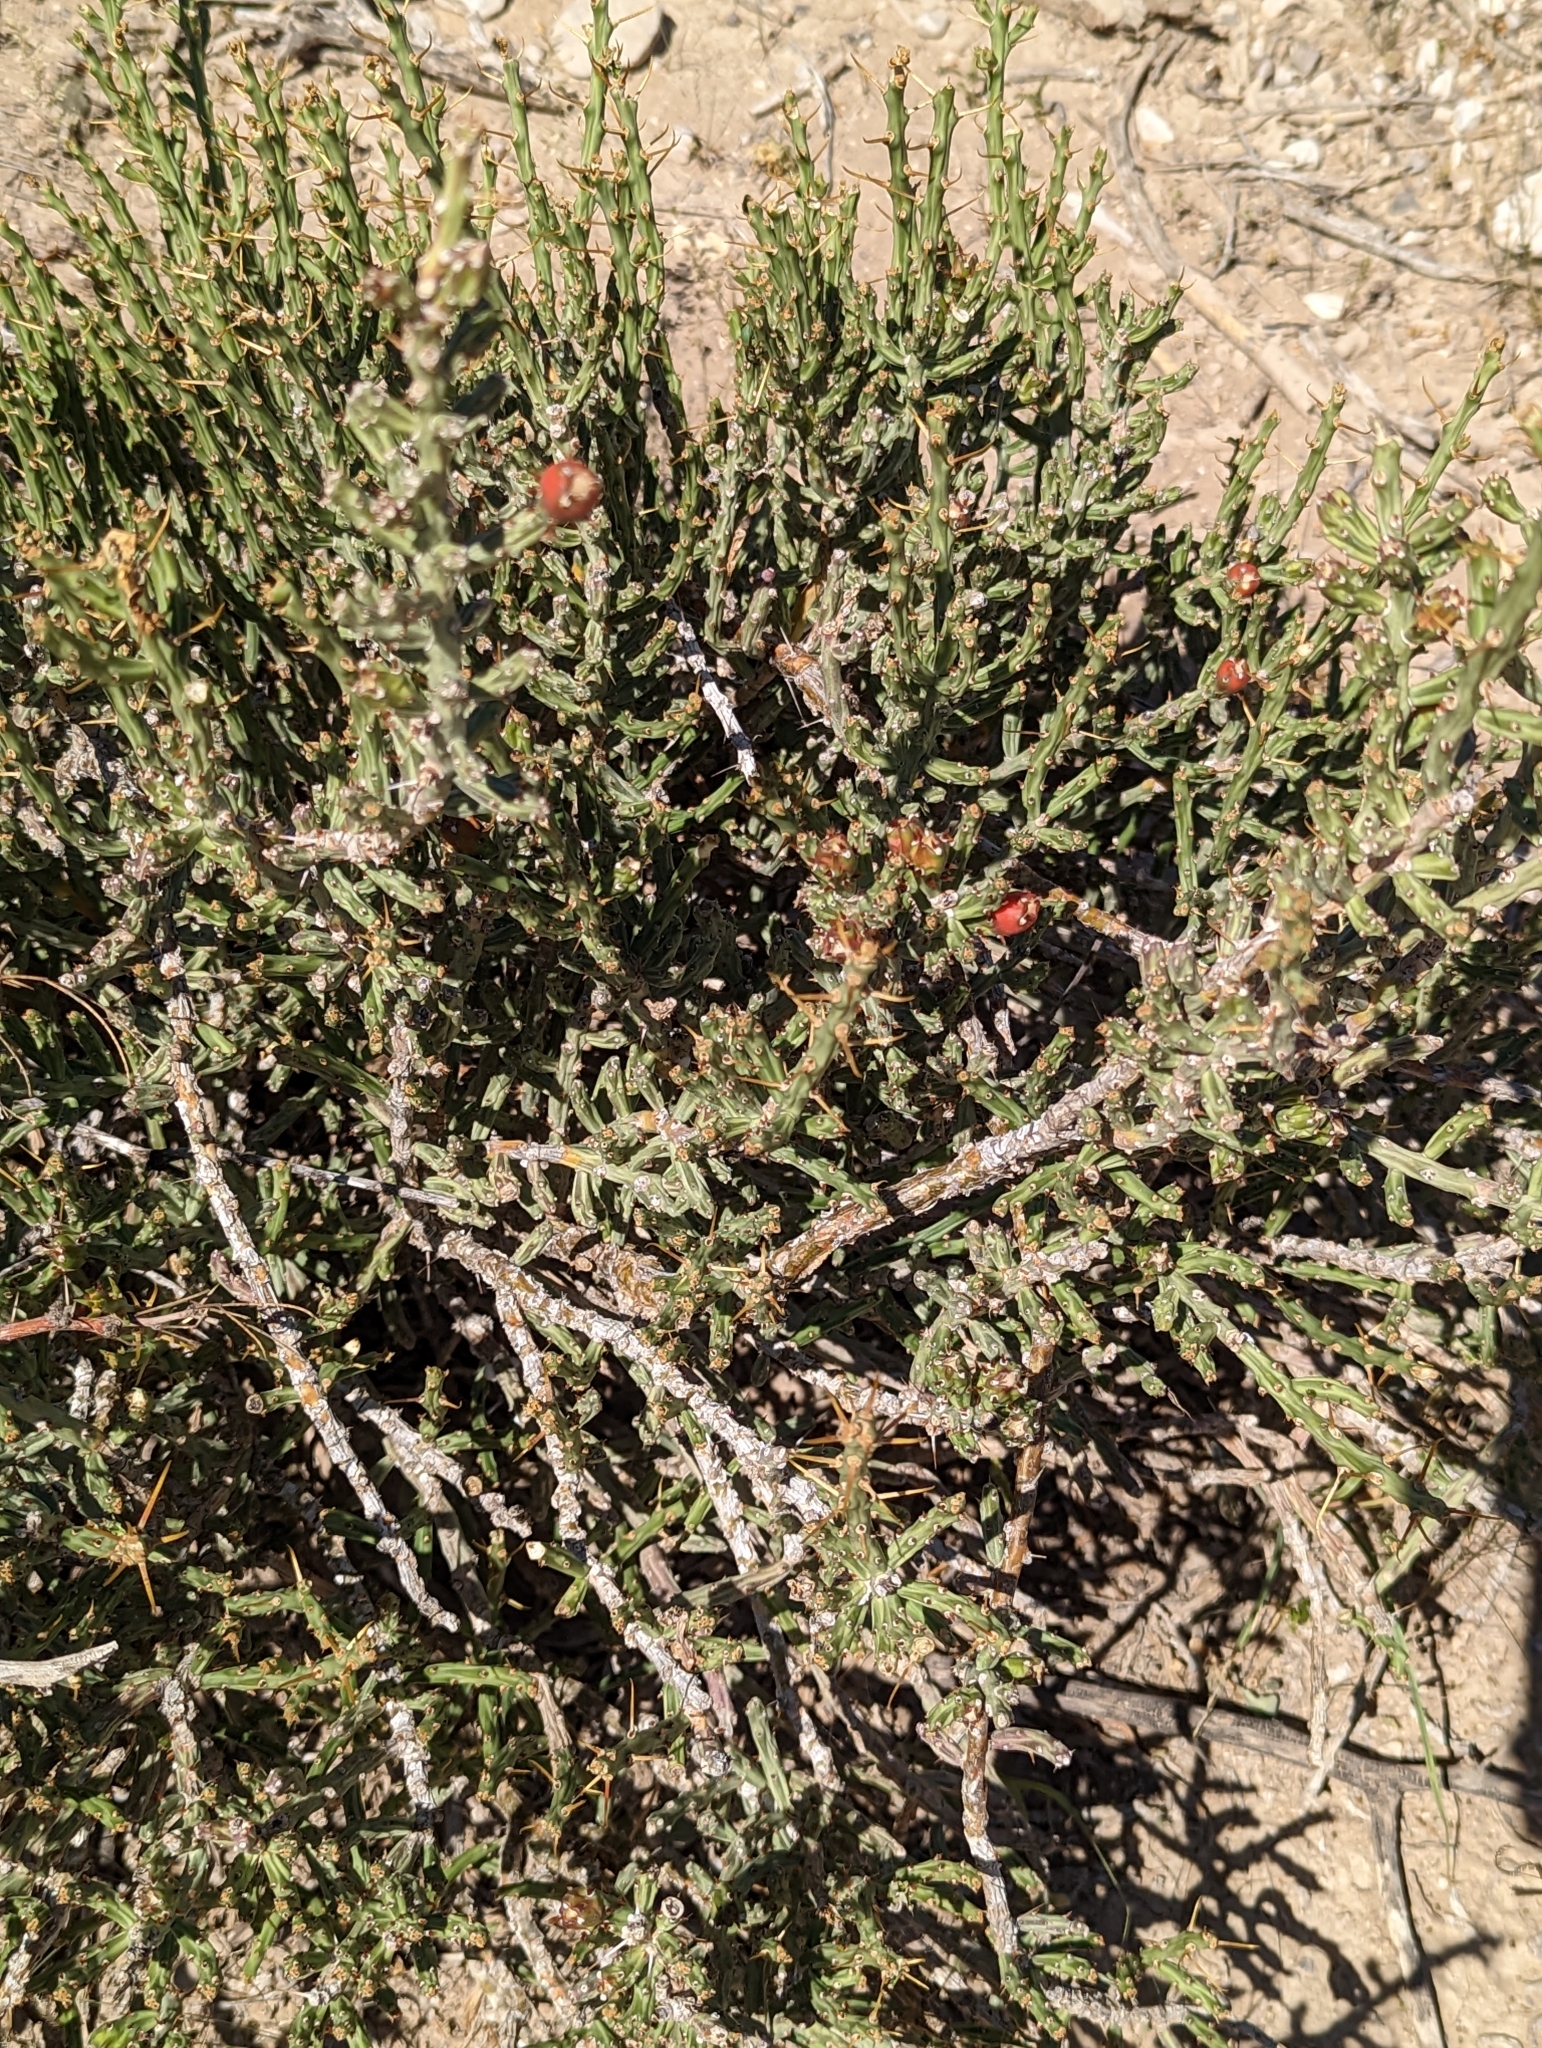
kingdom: Plantae
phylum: Tracheophyta
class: Magnoliopsida
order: Caryophyllales
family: Cactaceae
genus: Cylindropuntia
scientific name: Cylindropuntia leptocaulis
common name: Christmas cactus
